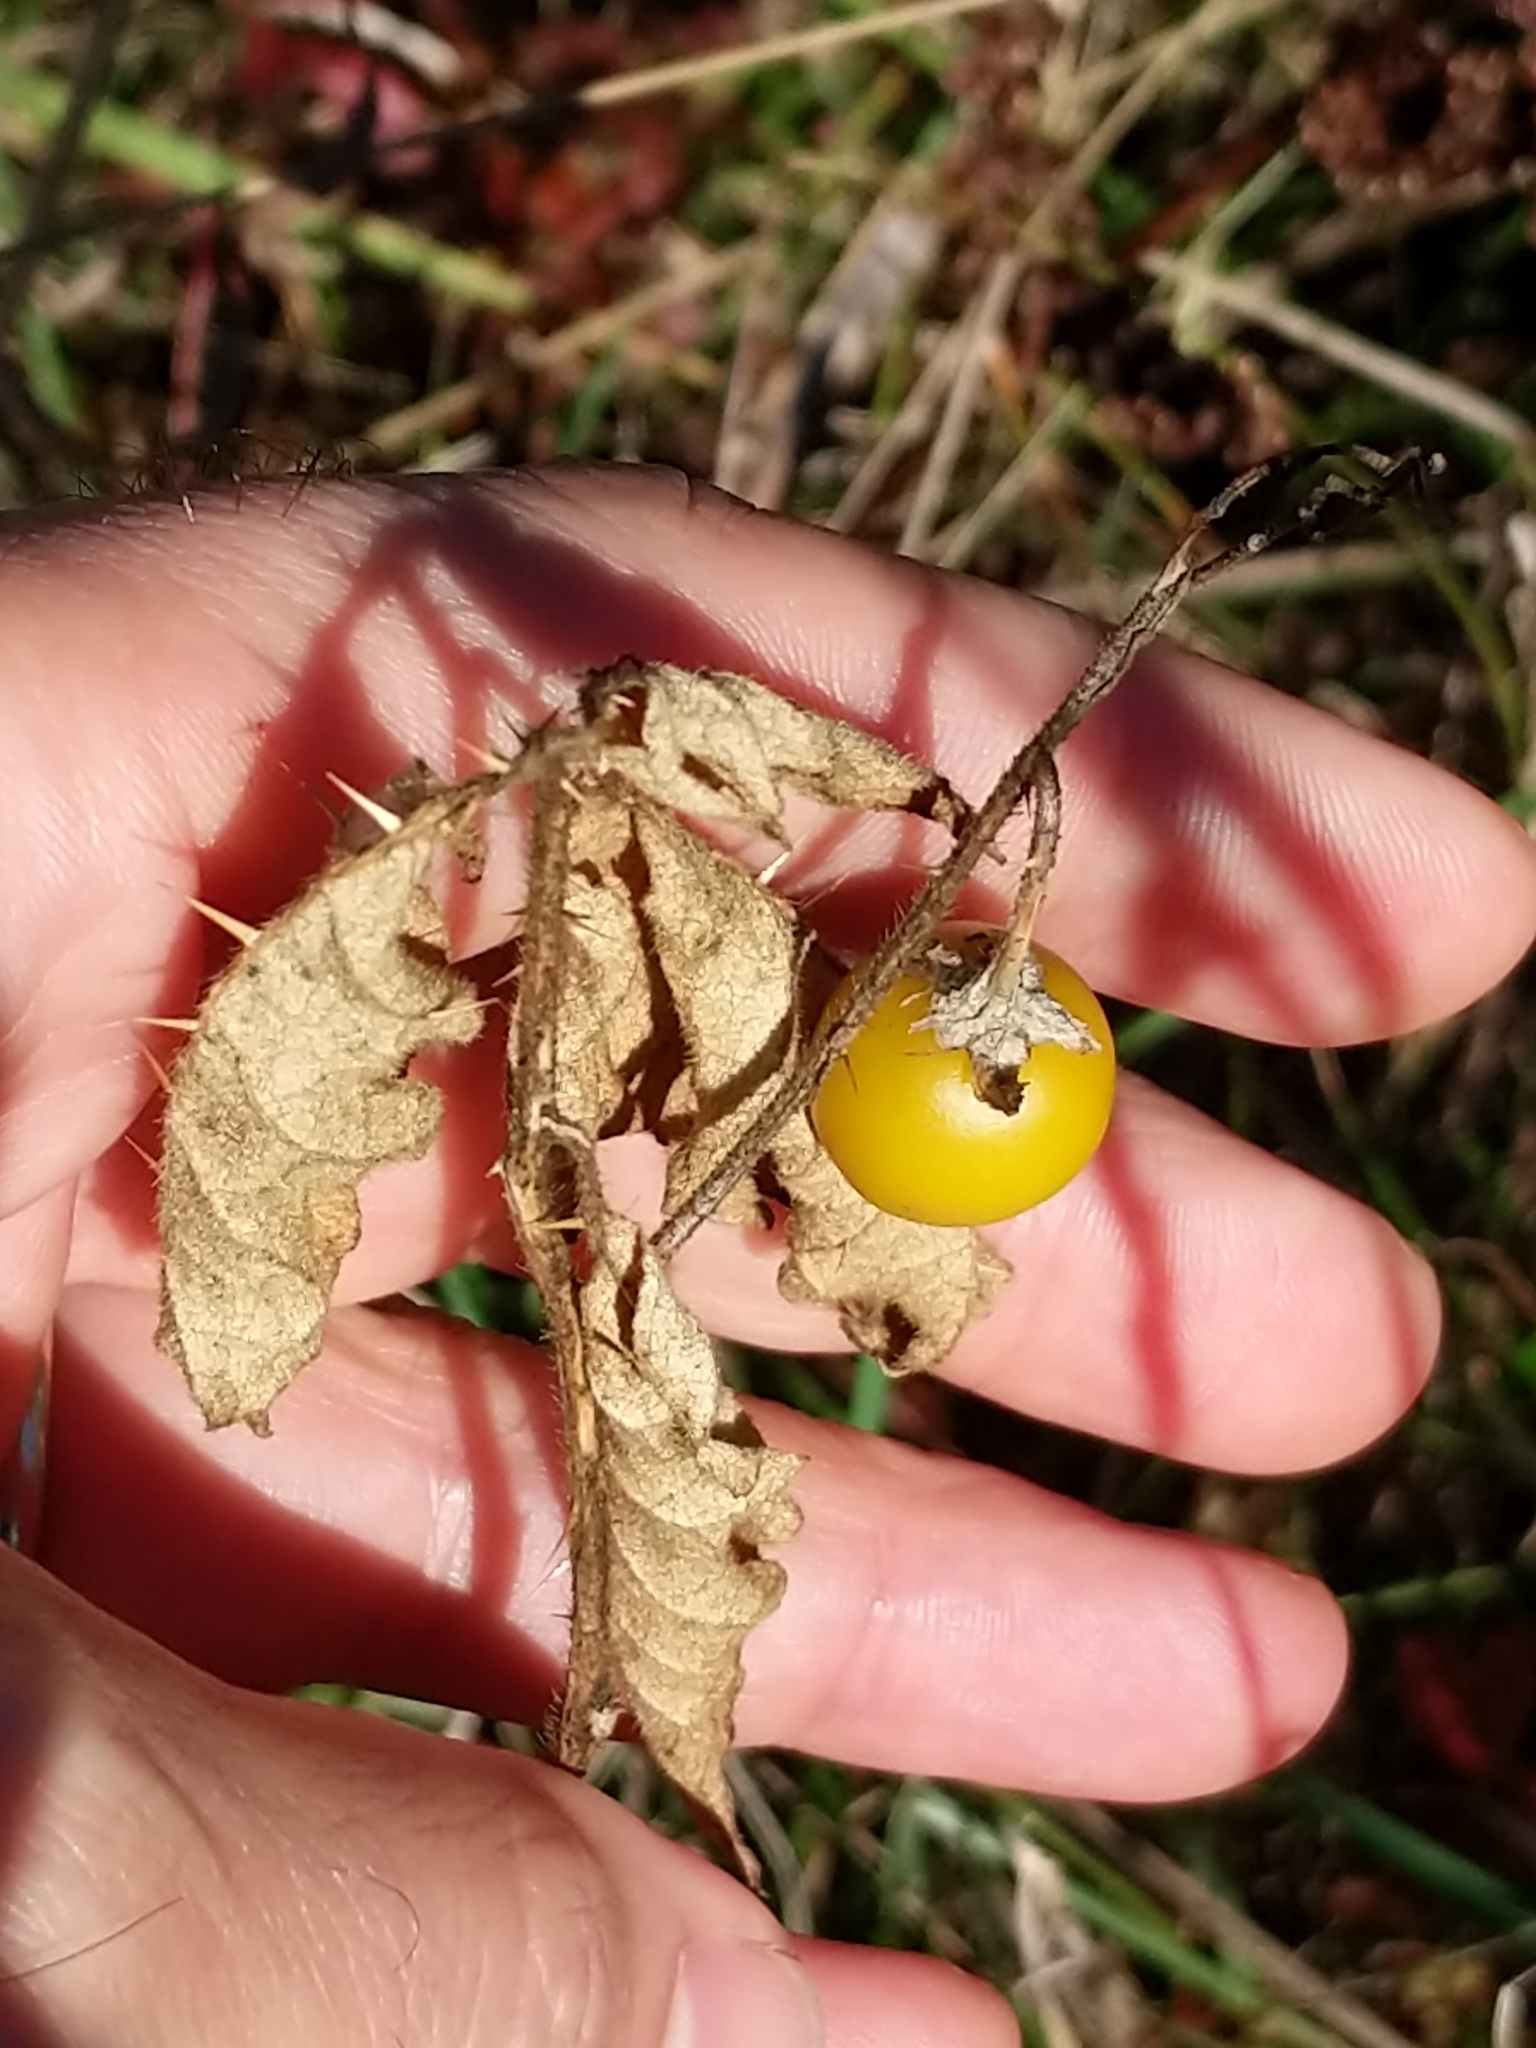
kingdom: Plantae
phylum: Tracheophyta
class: Magnoliopsida
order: Solanales
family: Solanaceae
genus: Solanum
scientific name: Solanum carolinense
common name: Horse-nettle
